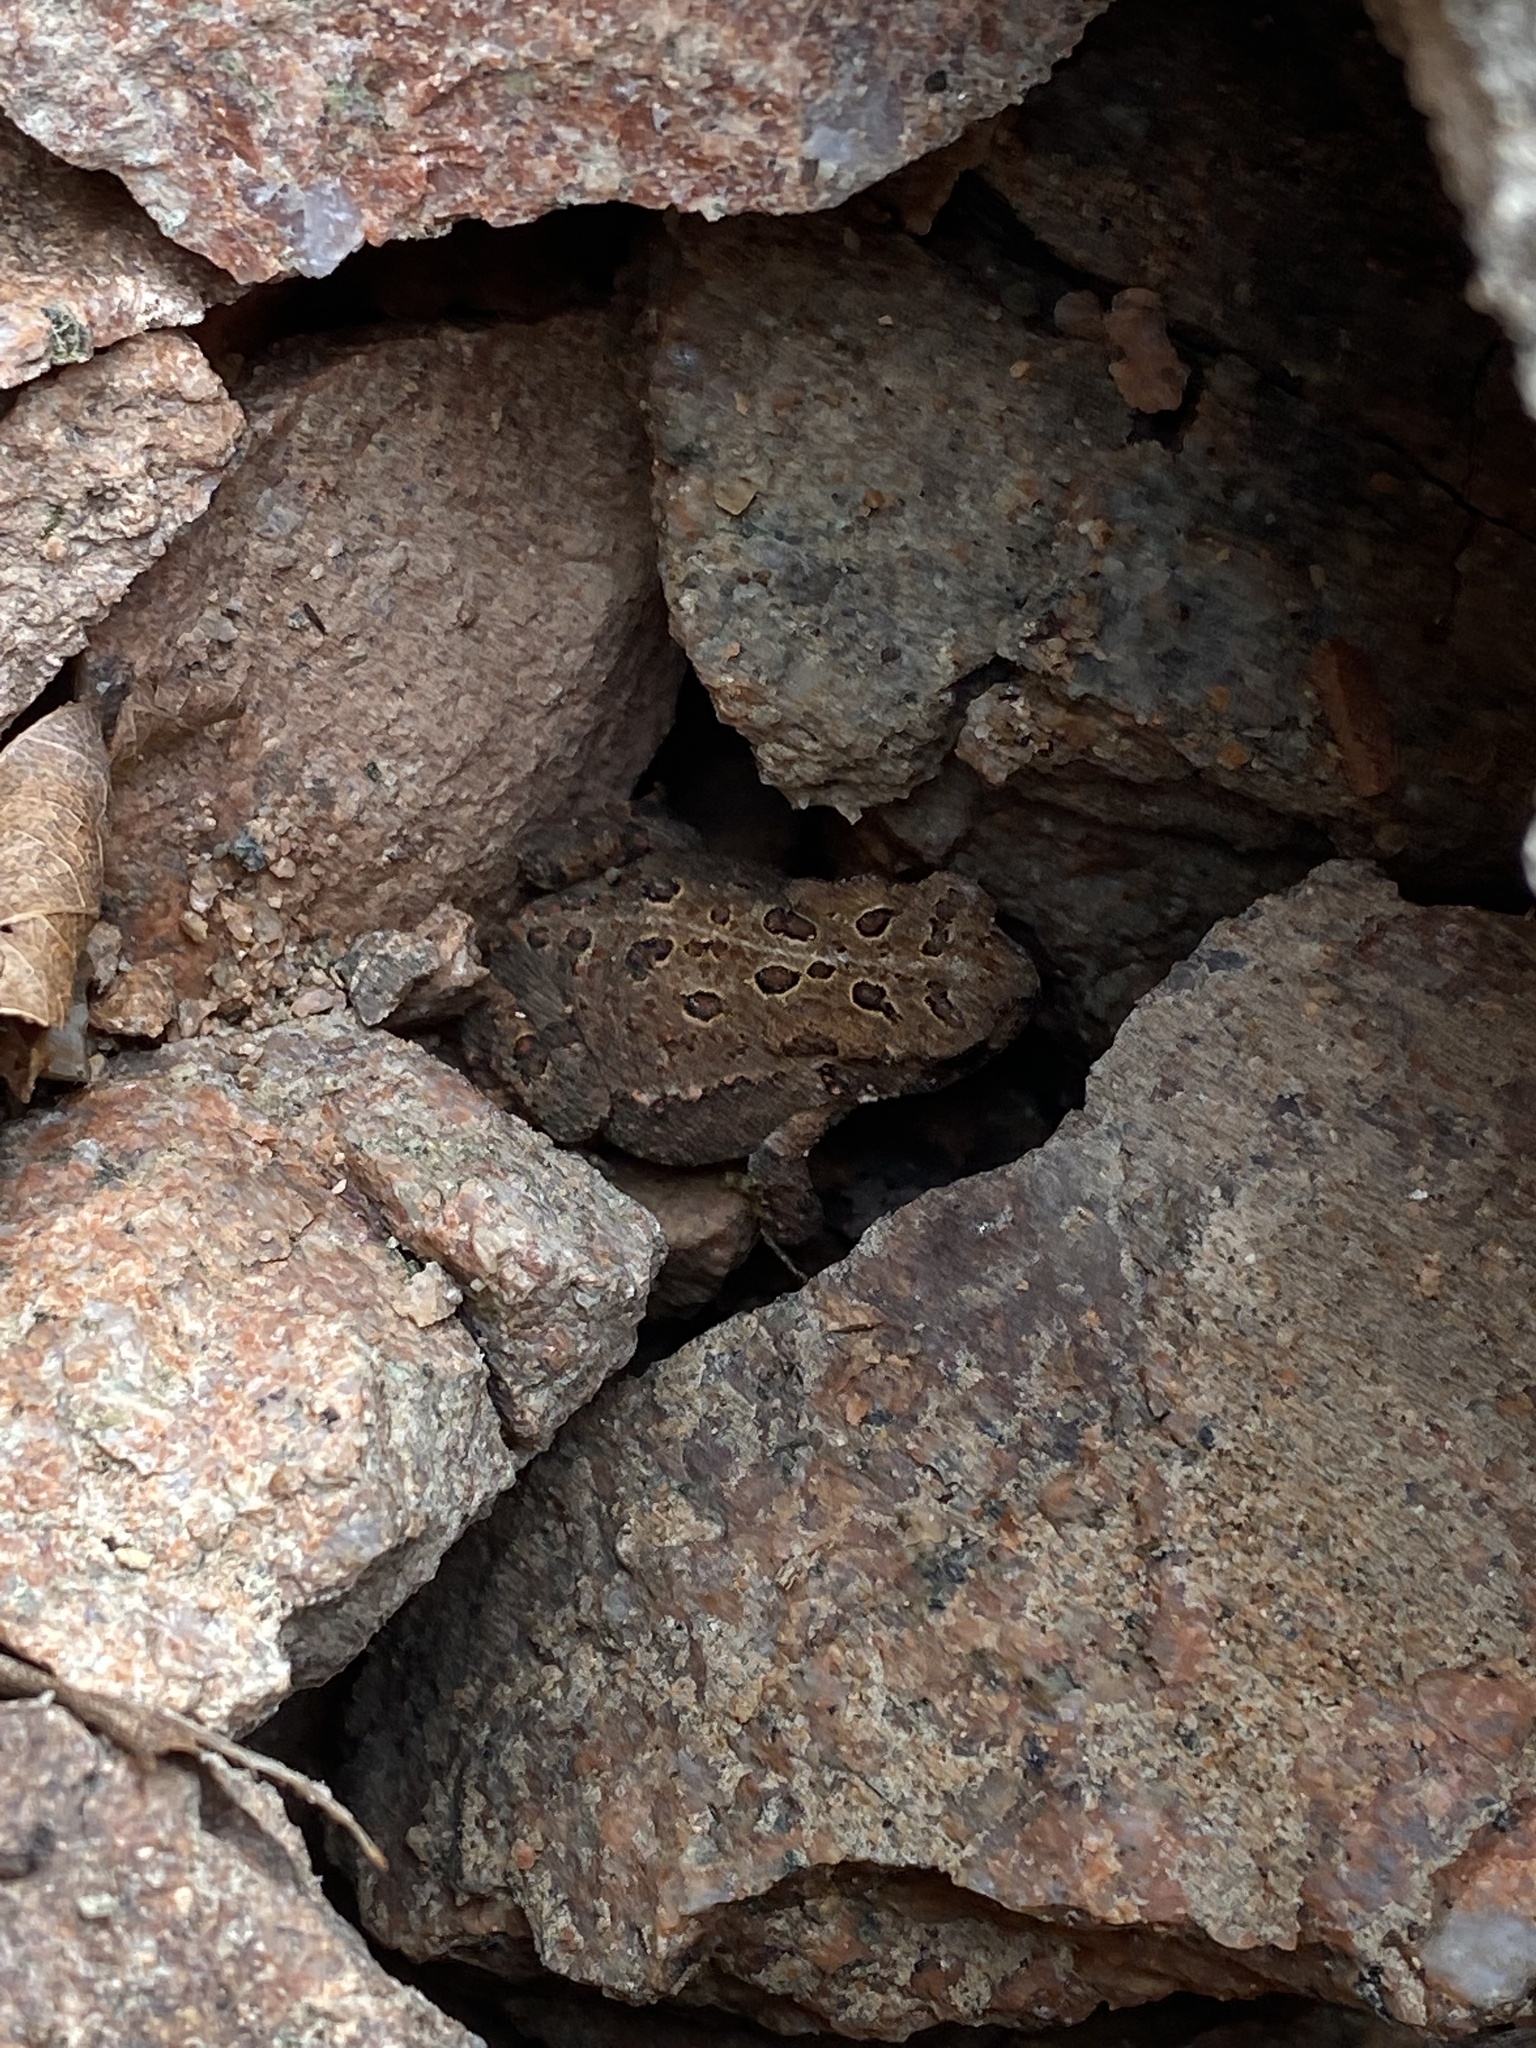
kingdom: Animalia
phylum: Chordata
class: Amphibia
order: Anura
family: Bufonidae
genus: Anaxyrus
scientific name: Anaxyrus americanus
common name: American toad
